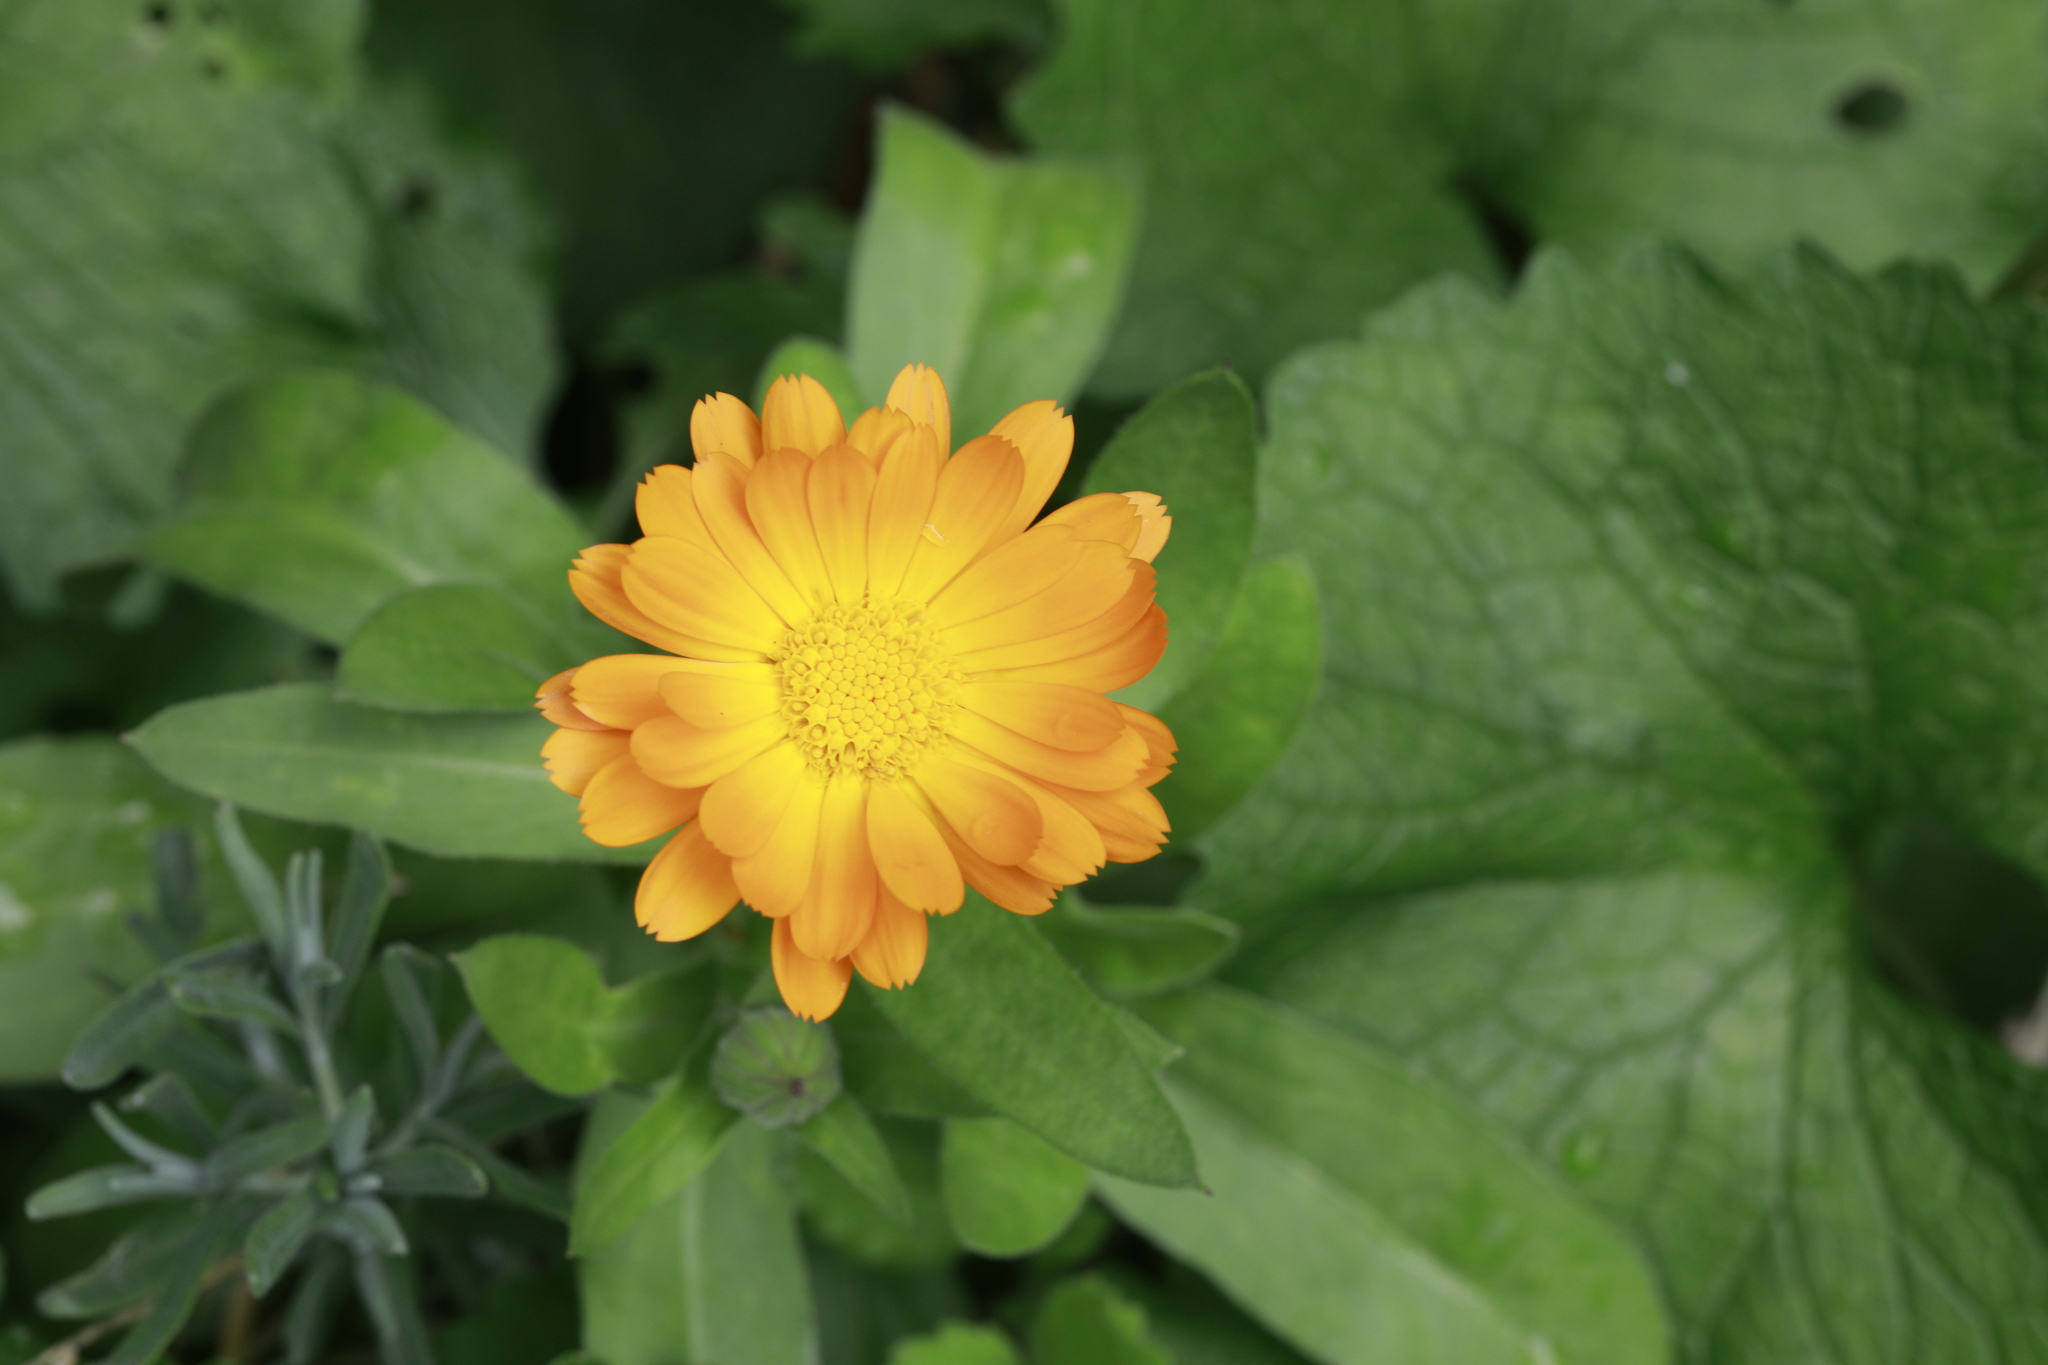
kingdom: Plantae
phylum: Tracheophyta
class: Magnoliopsida
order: Asterales
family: Asteraceae
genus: Calendula
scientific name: Calendula officinalis
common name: Pot marigold
